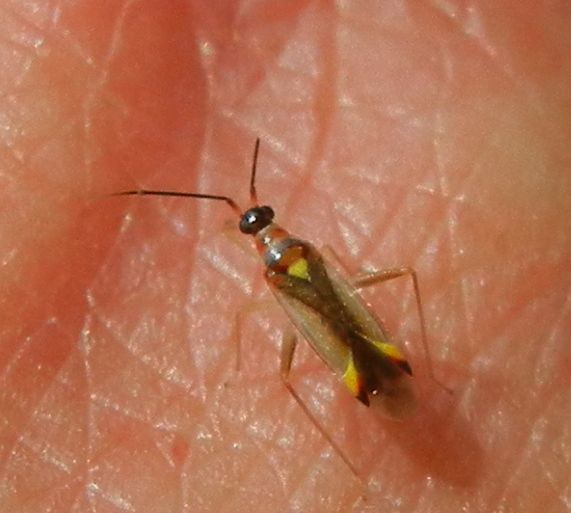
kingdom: Animalia
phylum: Arthropoda
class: Insecta
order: Hemiptera
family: Miridae
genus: Campyloneura
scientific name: Campyloneura virgula
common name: Predatory bug
